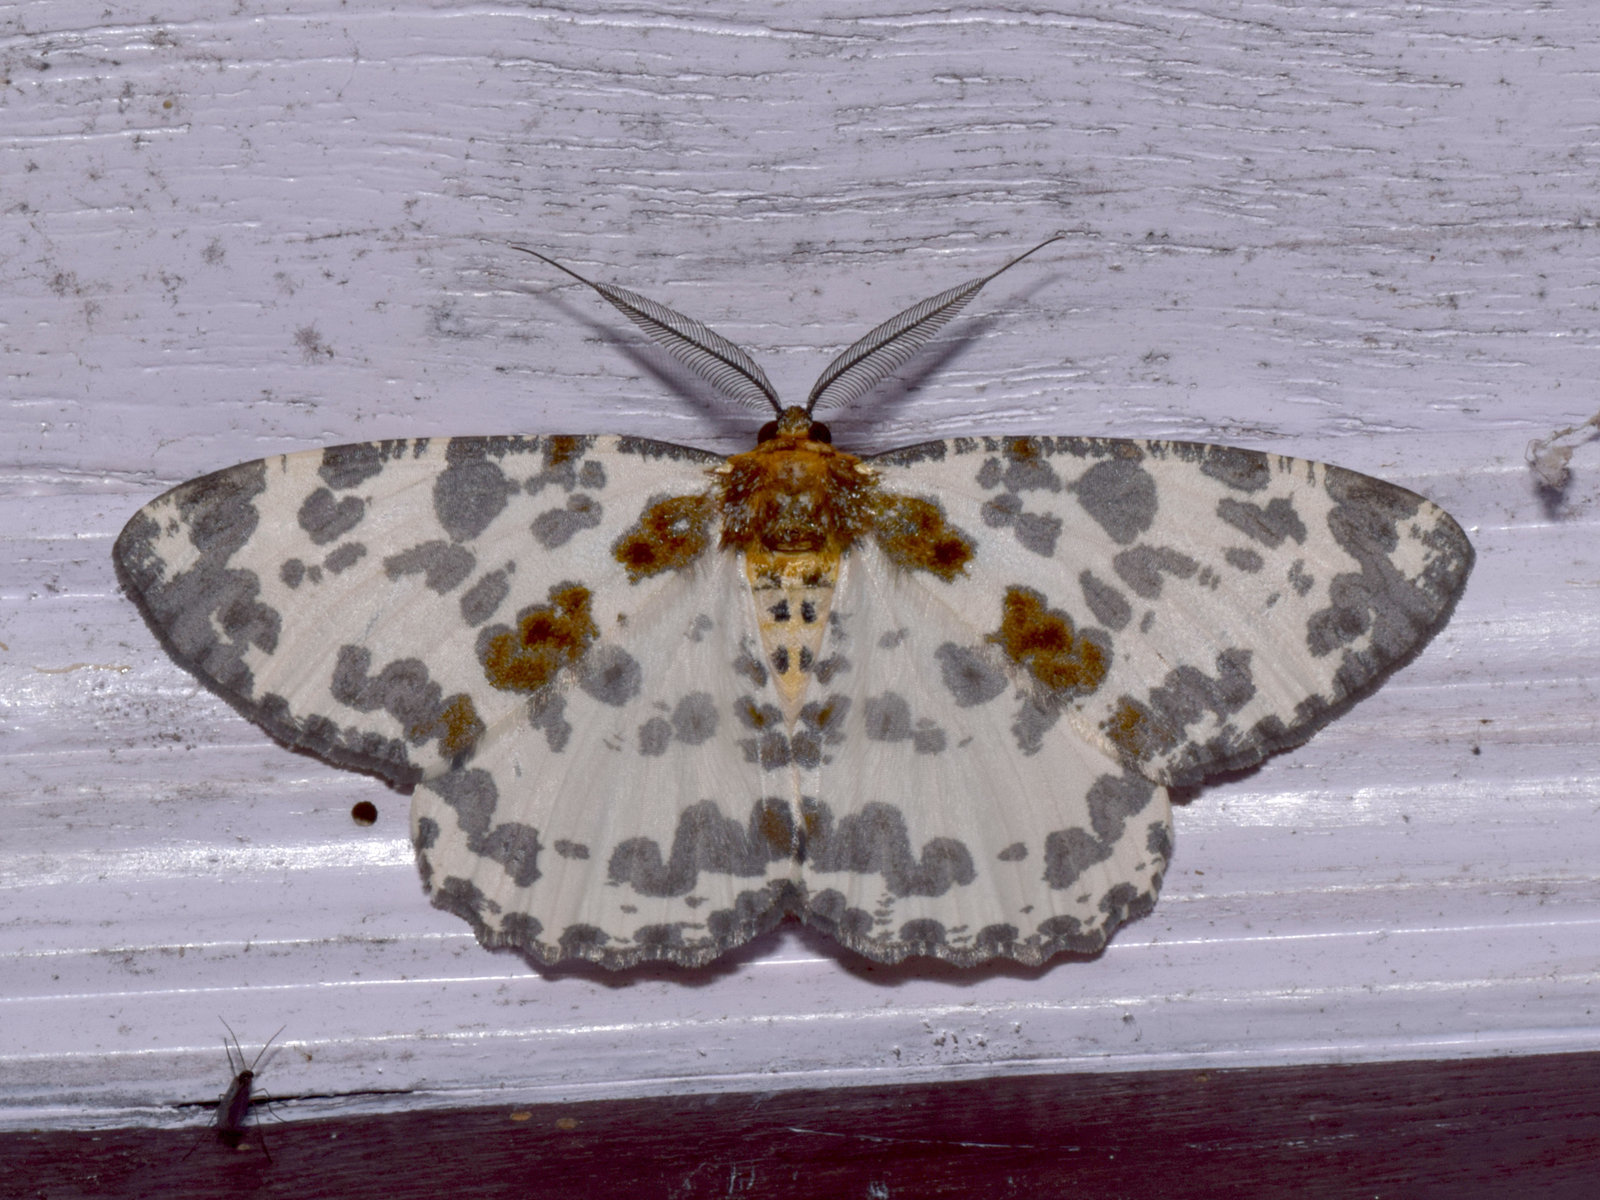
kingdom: Animalia
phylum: Arthropoda
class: Insecta
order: Lepidoptera
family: Geometridae
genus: Hypomecis
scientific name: Hypomecis pardaria
